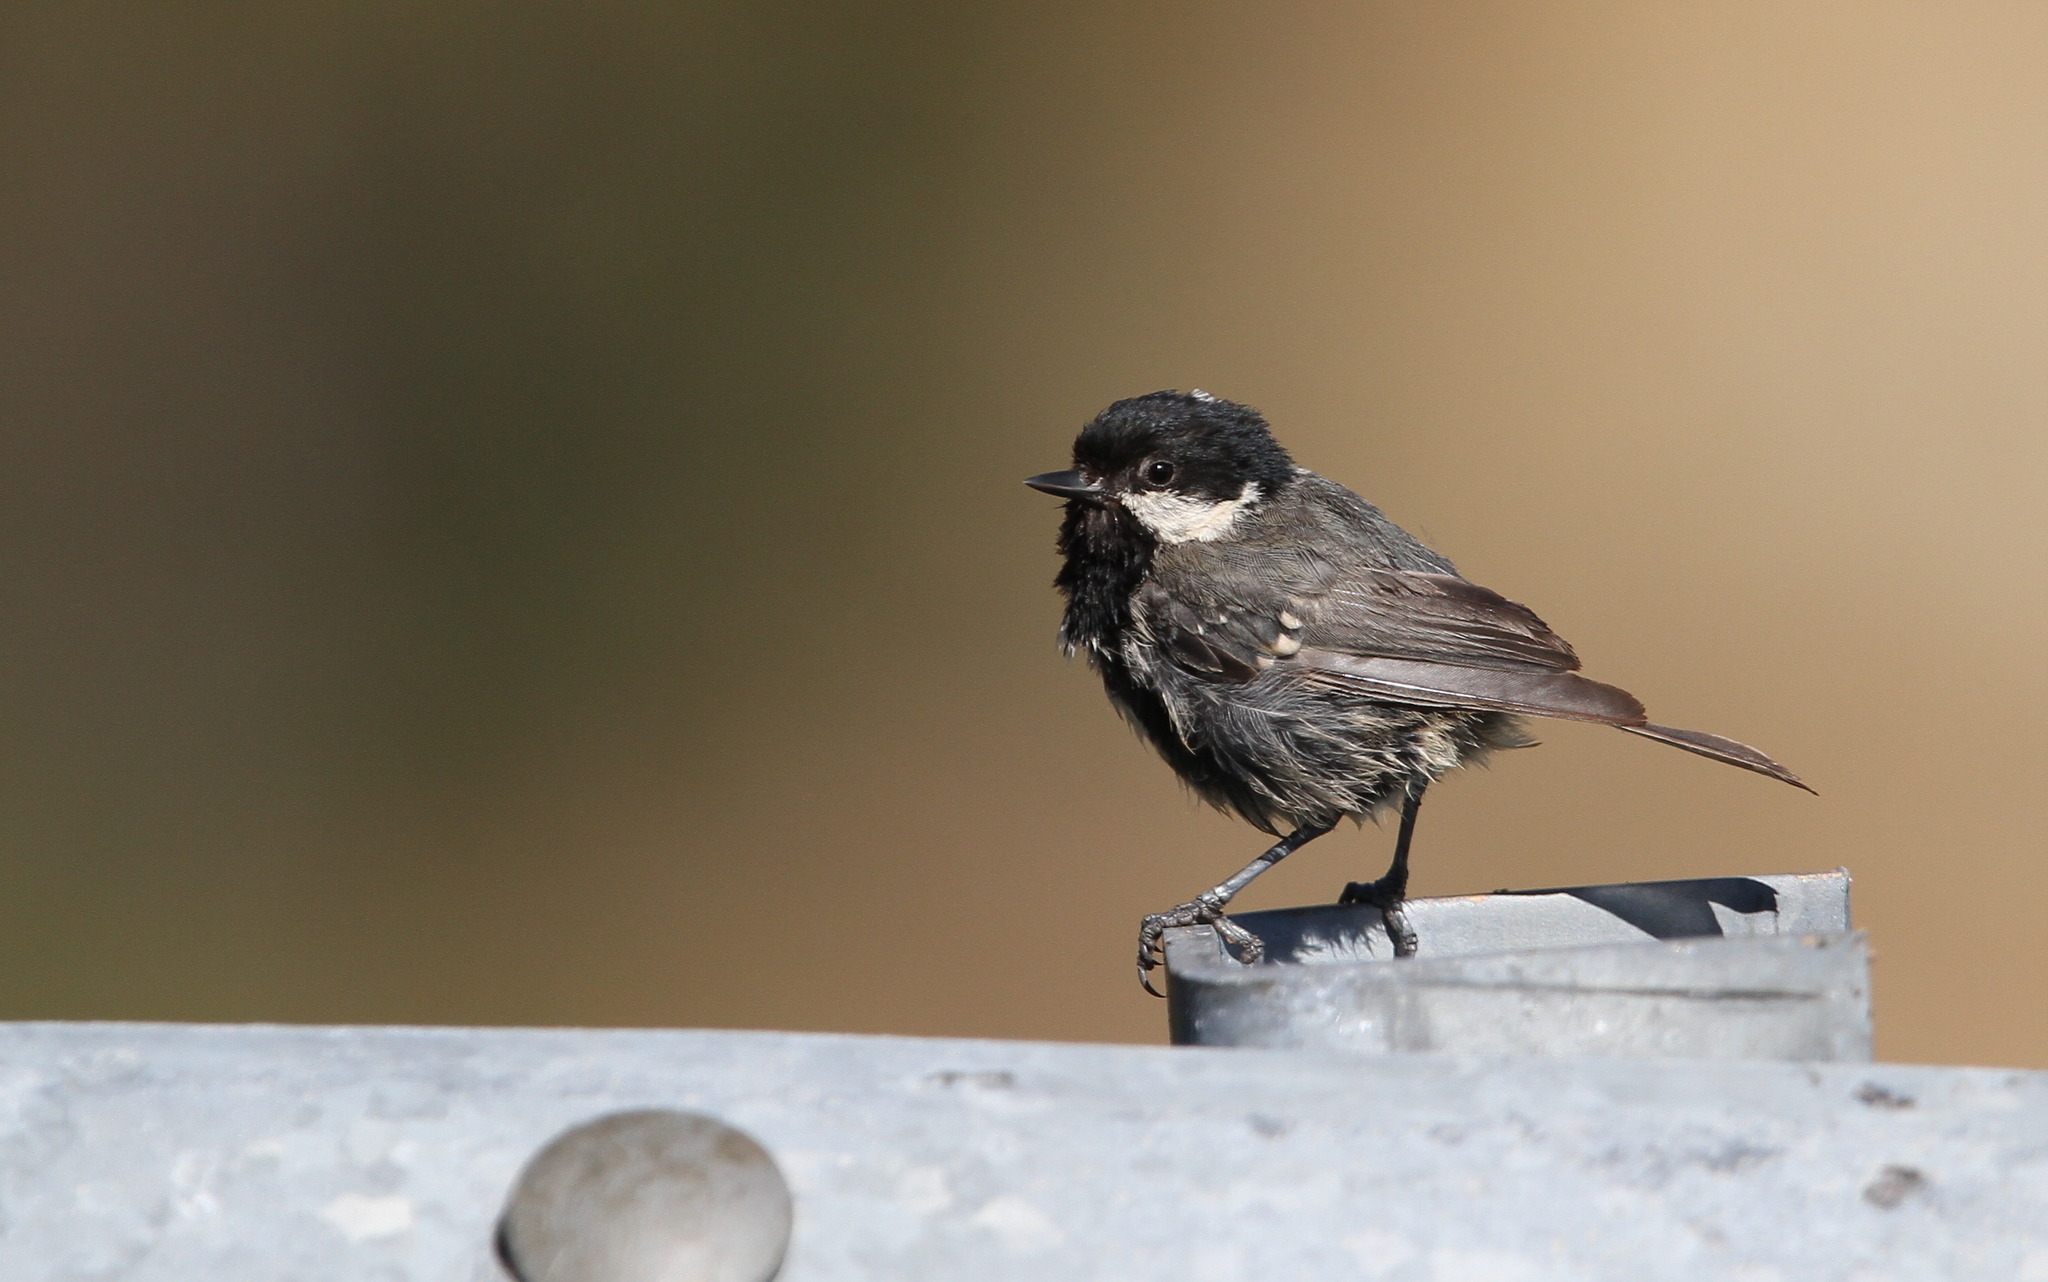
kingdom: Animalia
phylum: Chordata
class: Aves
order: Passeriformes
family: Paridae
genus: Periparus
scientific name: Periparus ater
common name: Coal tit
